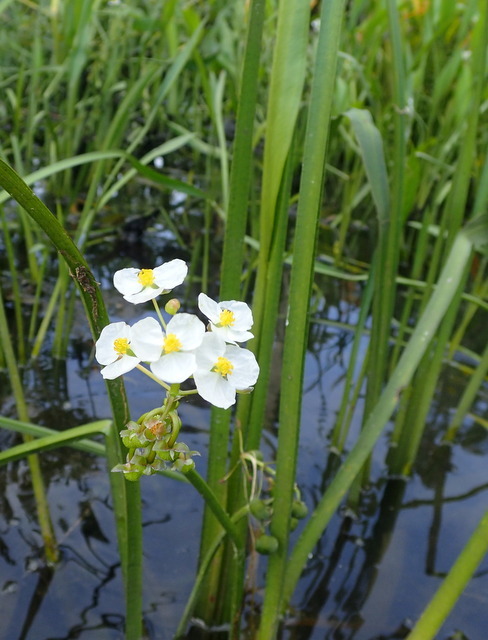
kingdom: Plantae
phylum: Tracheophyta
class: Liliopsida
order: Alismatales
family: Alismataceae
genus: Sagittaria
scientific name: Sagittaria platyphylla
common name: Broad-leaf arrowhead
